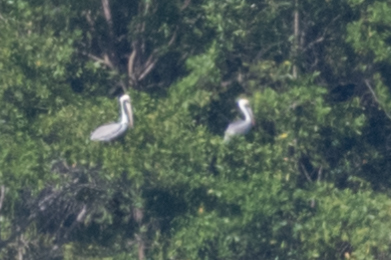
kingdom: Animalia
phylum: Chordata
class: Aves
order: Pelecaniformes
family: Pelecanidae
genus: Pelecanus
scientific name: Pelecanus occidentalis
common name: Brown pelican
